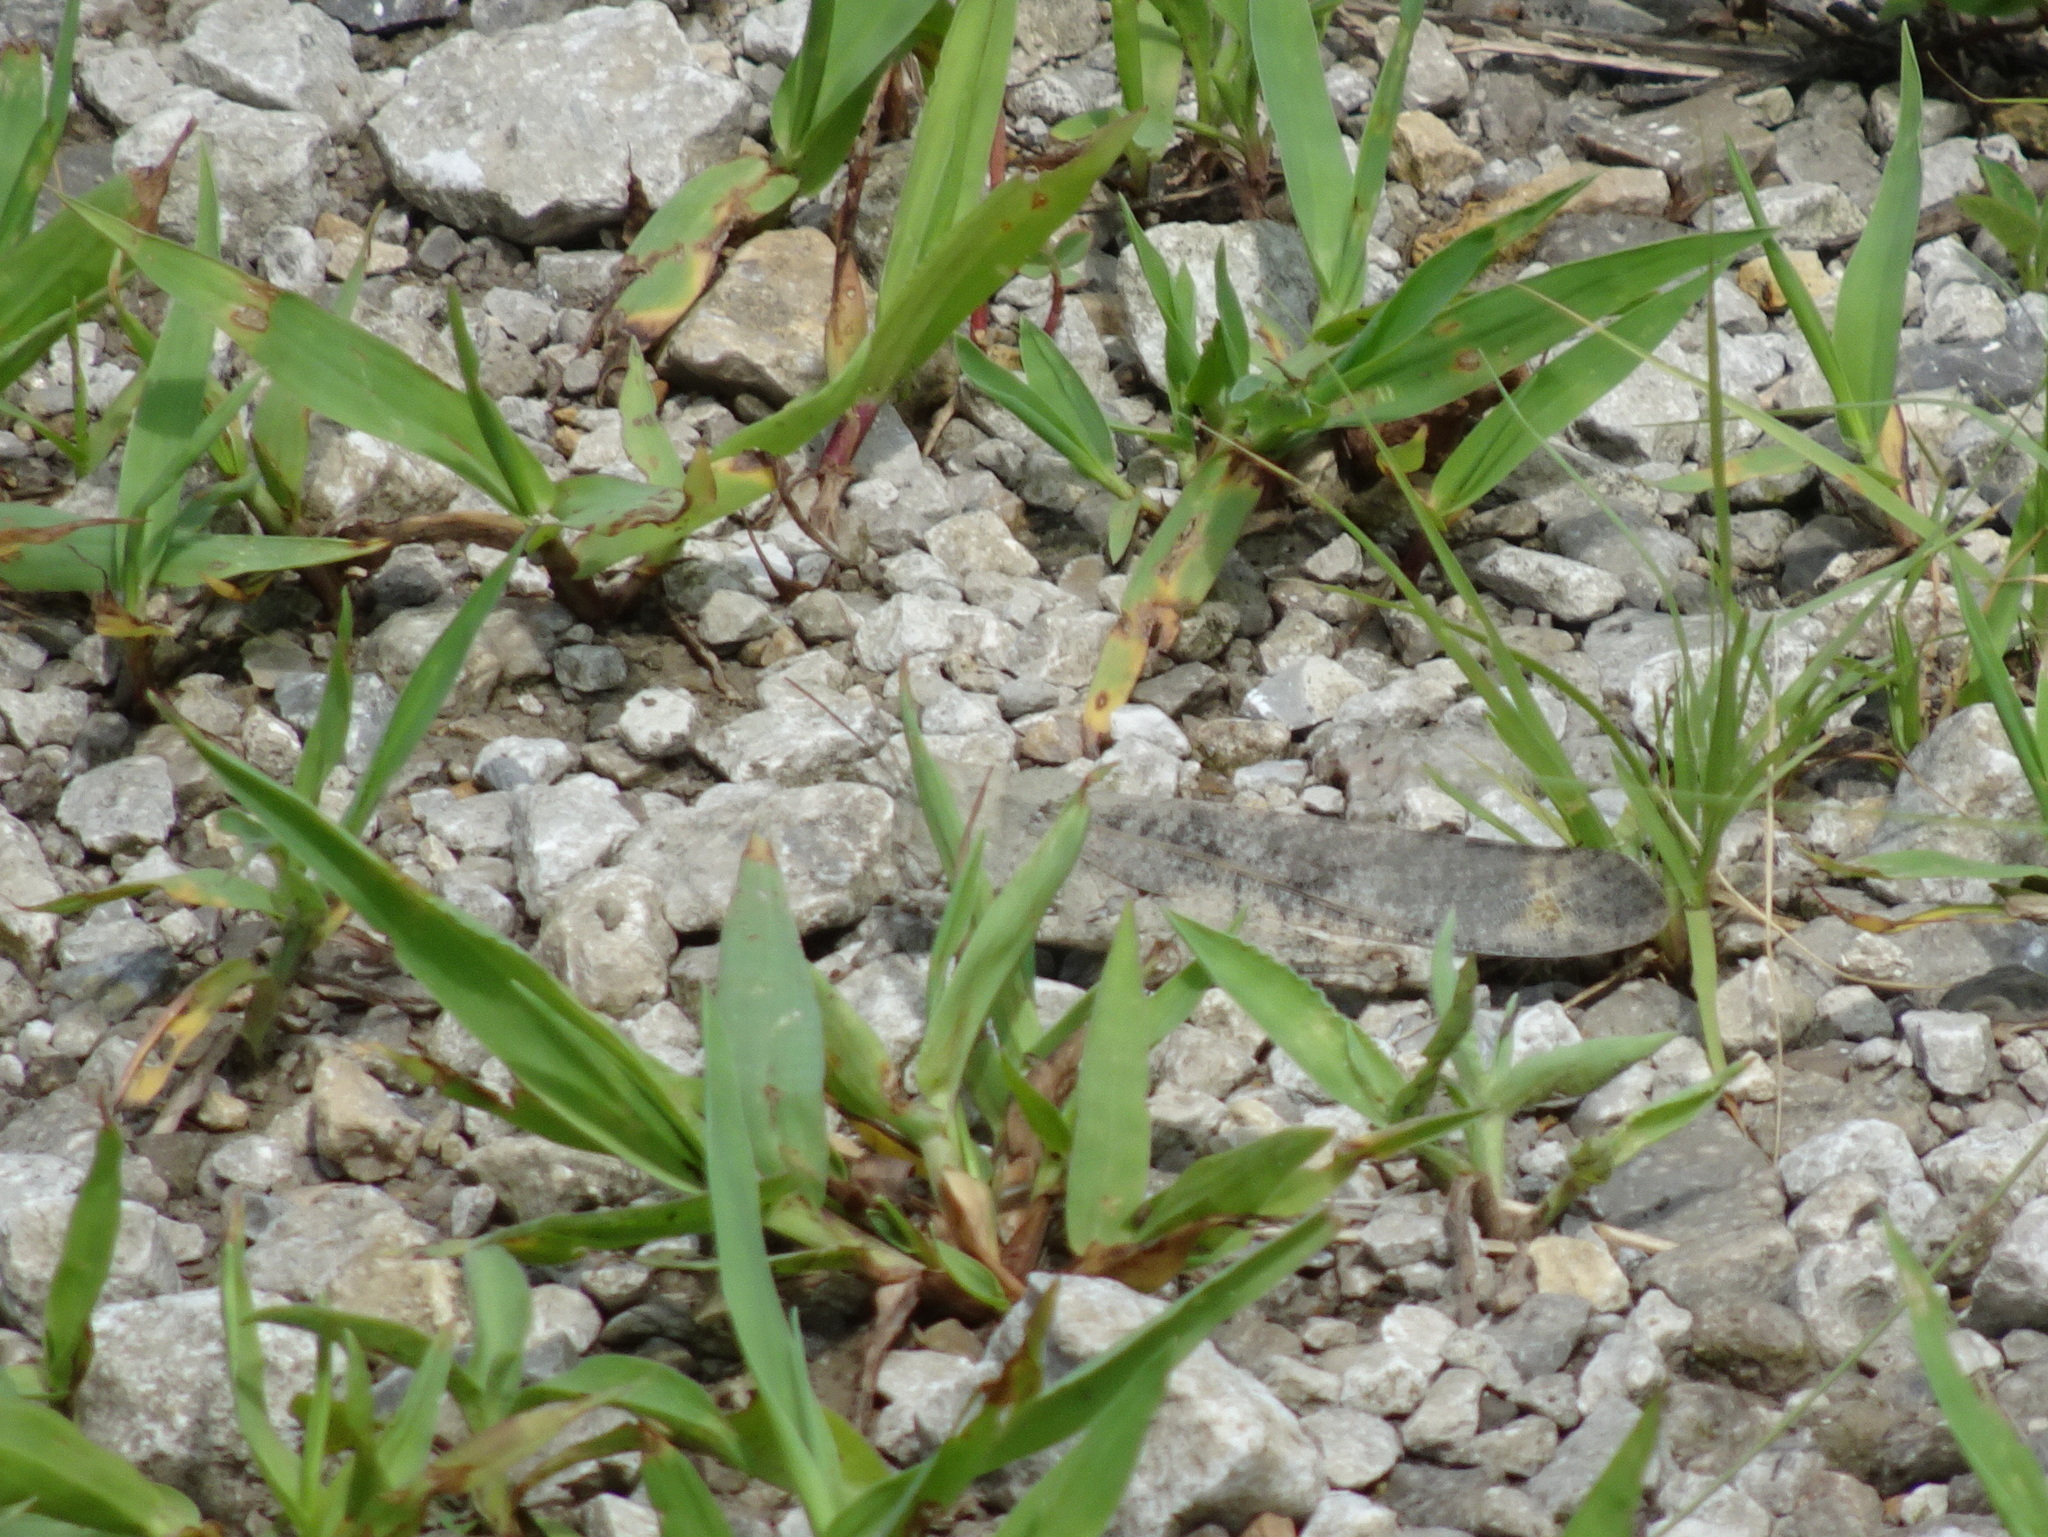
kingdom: Animalia
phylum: Arthropoda
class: Insecta
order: Orthoptera
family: Acrididae
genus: Dissosteira
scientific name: Dissosteira carolina
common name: Carolina grasshopper
